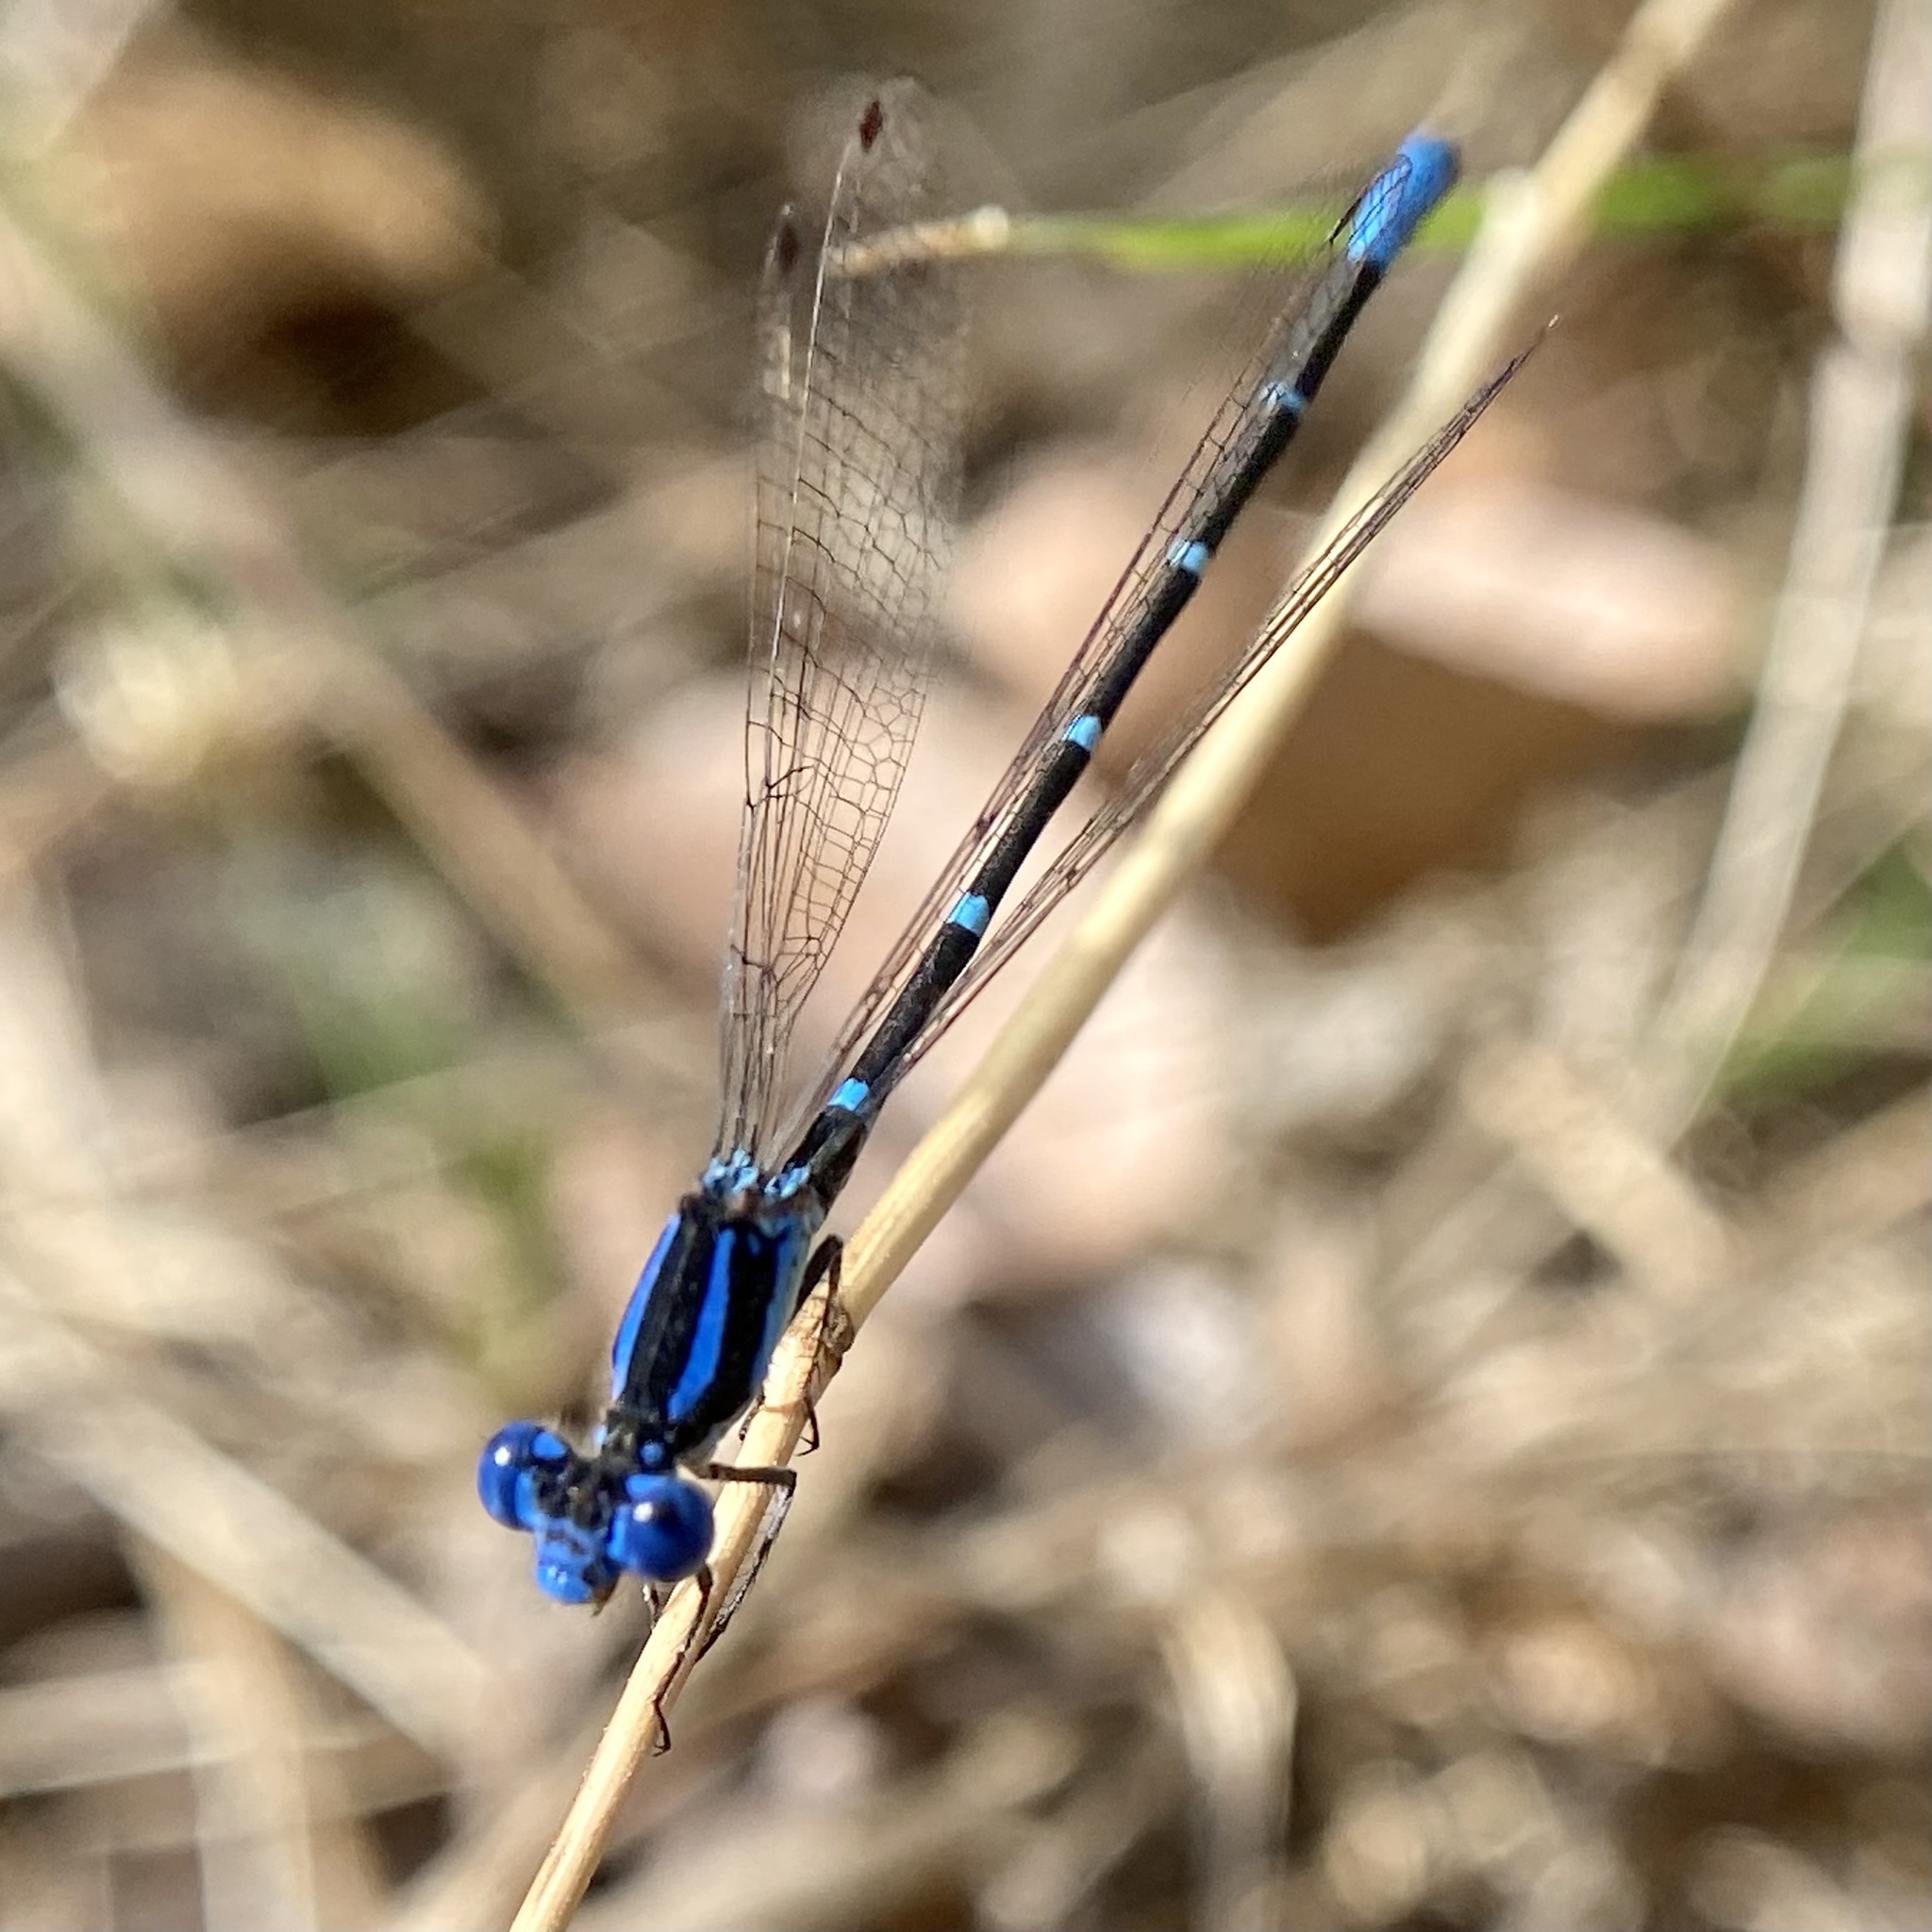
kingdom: Animalia
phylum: Arthropoda
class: Insecta
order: Odonata
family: Coenagrionidae
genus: Argia
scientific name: Argia sedula
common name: Blue-ringed dancer
